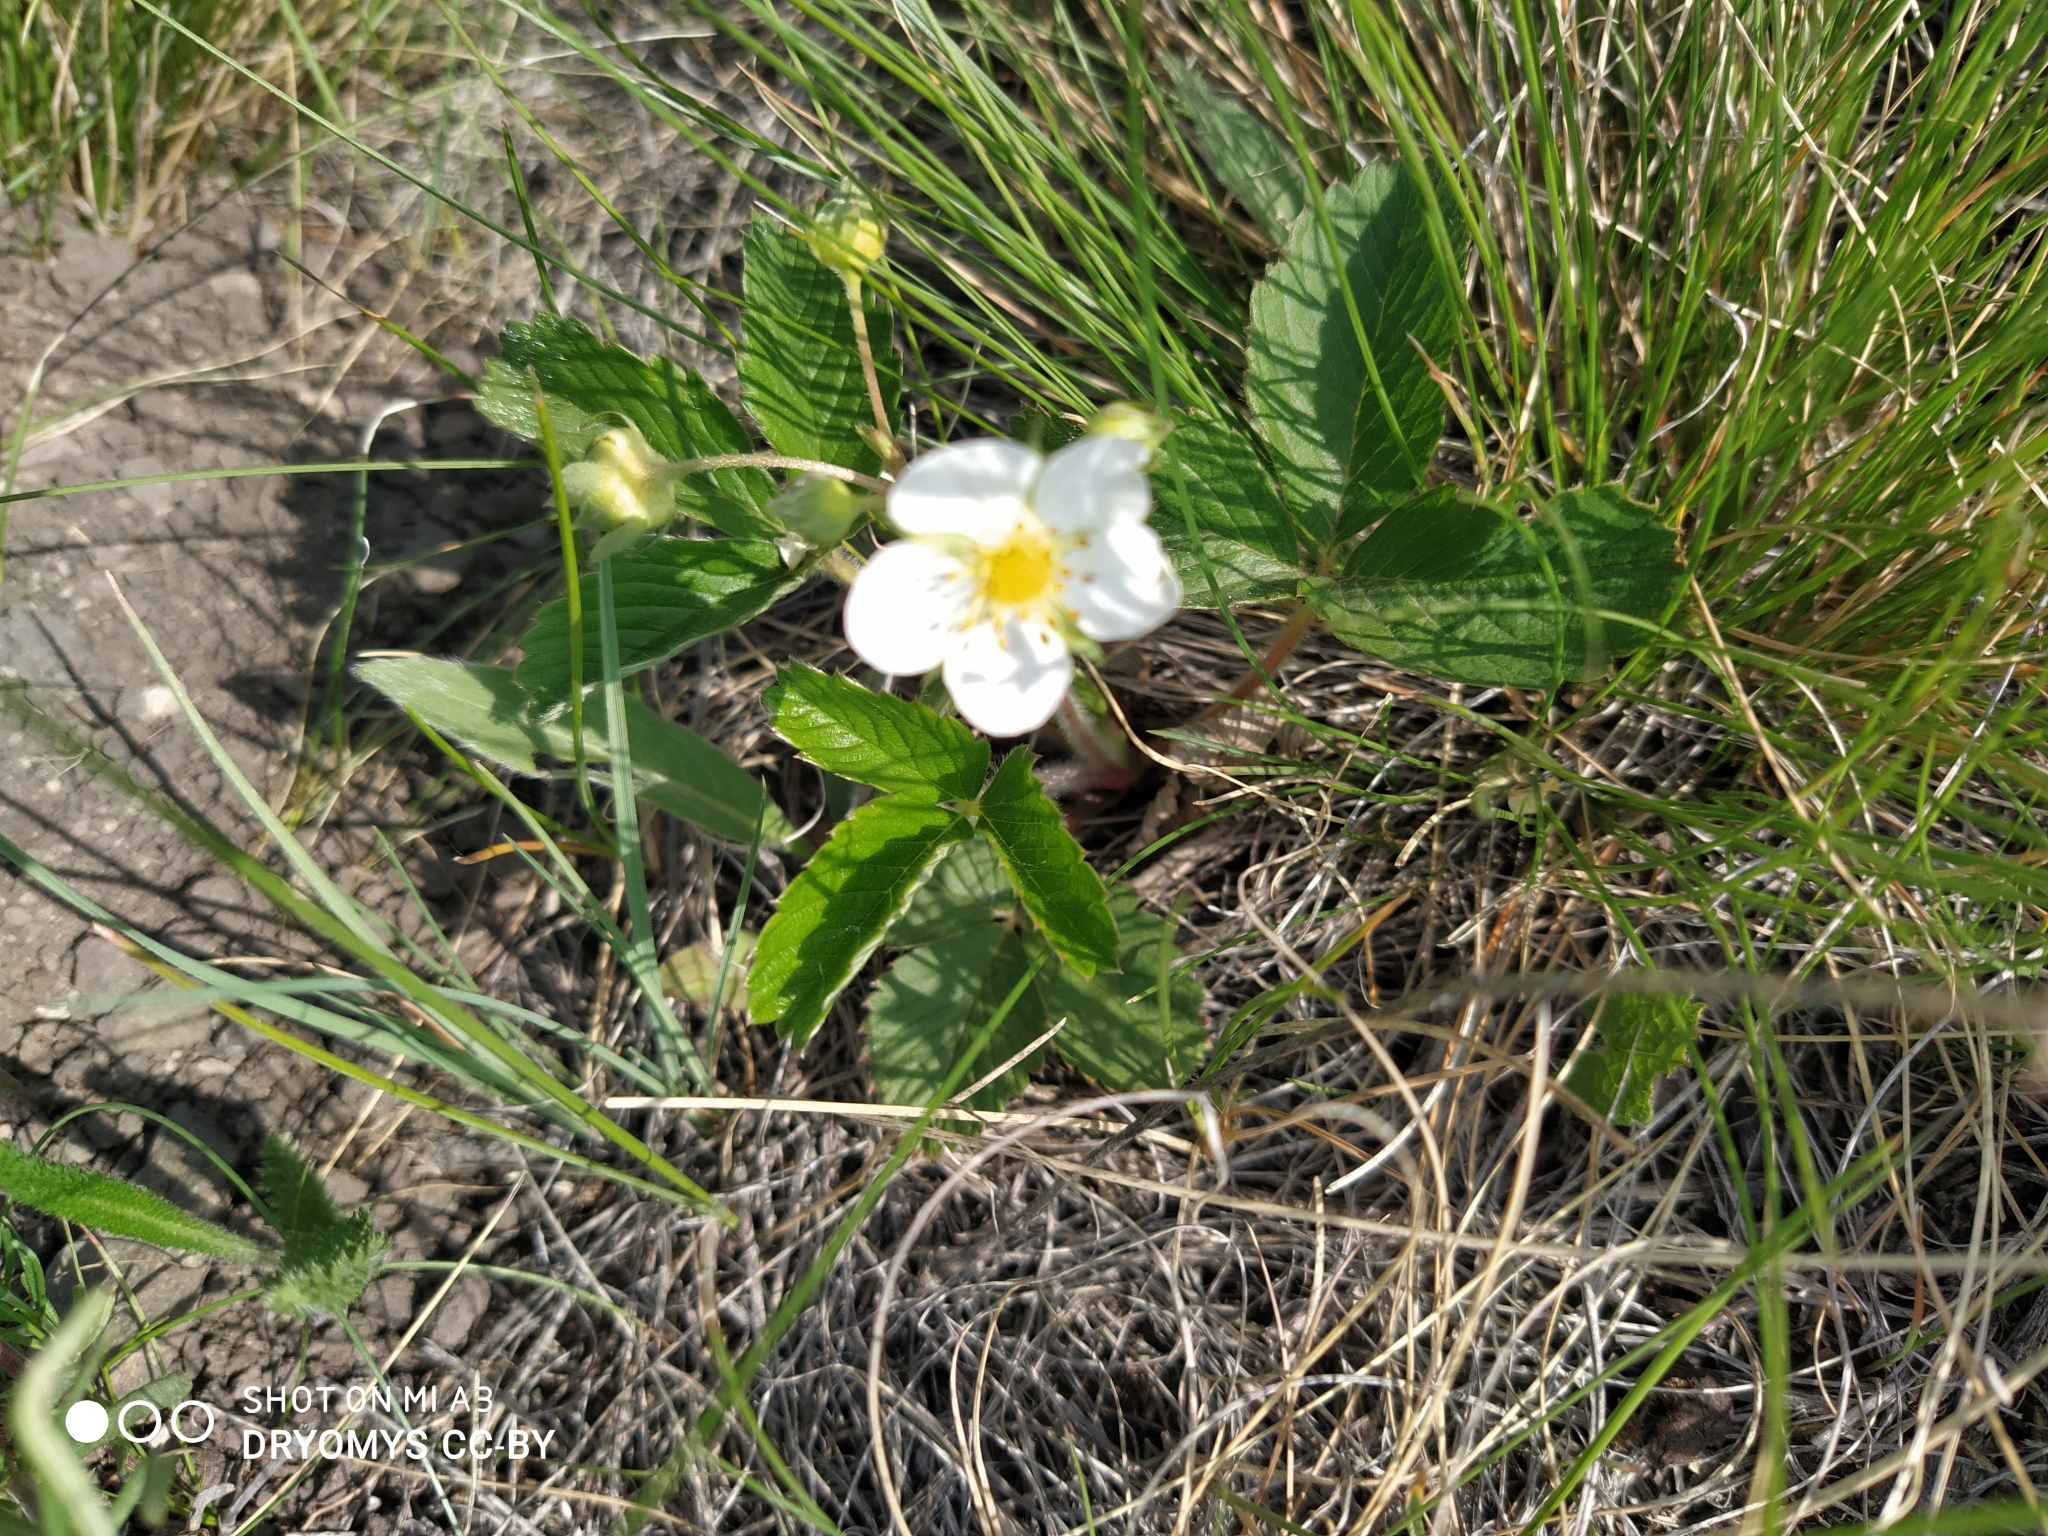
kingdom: Plantae
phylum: Tracheophyta
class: Magnoliopsida
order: Rosales
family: Rosaceae
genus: Fragaria
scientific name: Fragaria viridis
